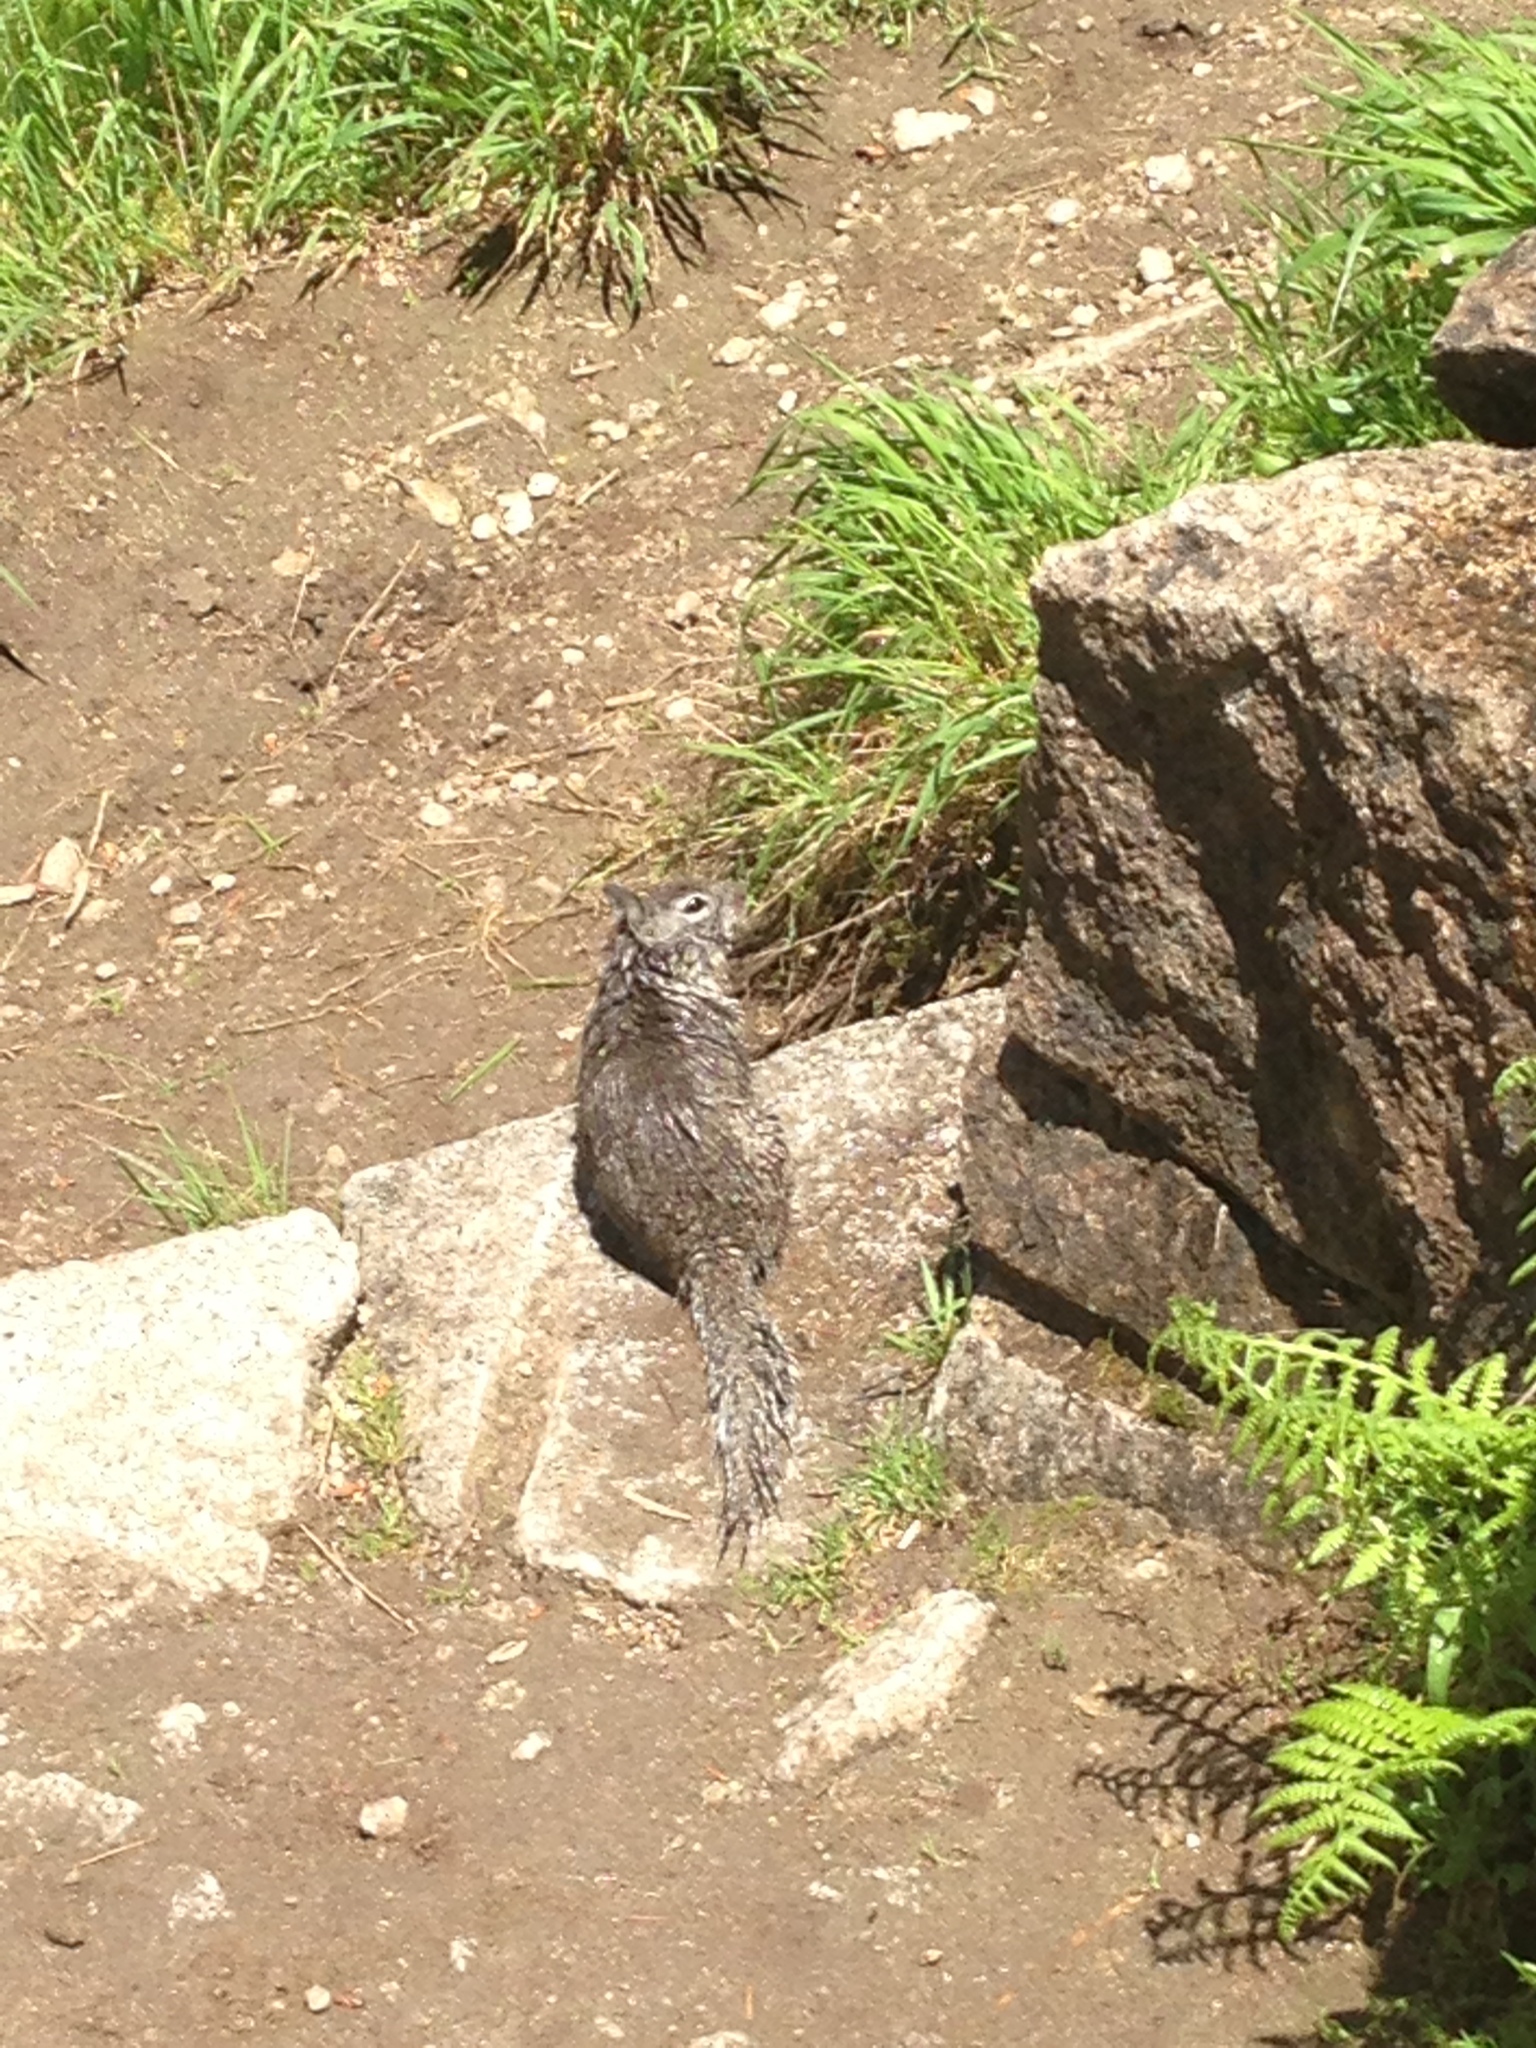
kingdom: Animalia
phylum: Chordata
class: Mammalia
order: Rodentia
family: Sciuridae
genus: Otospermophilus
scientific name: Otospermophilus beecheyi
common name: California ground squirrel
